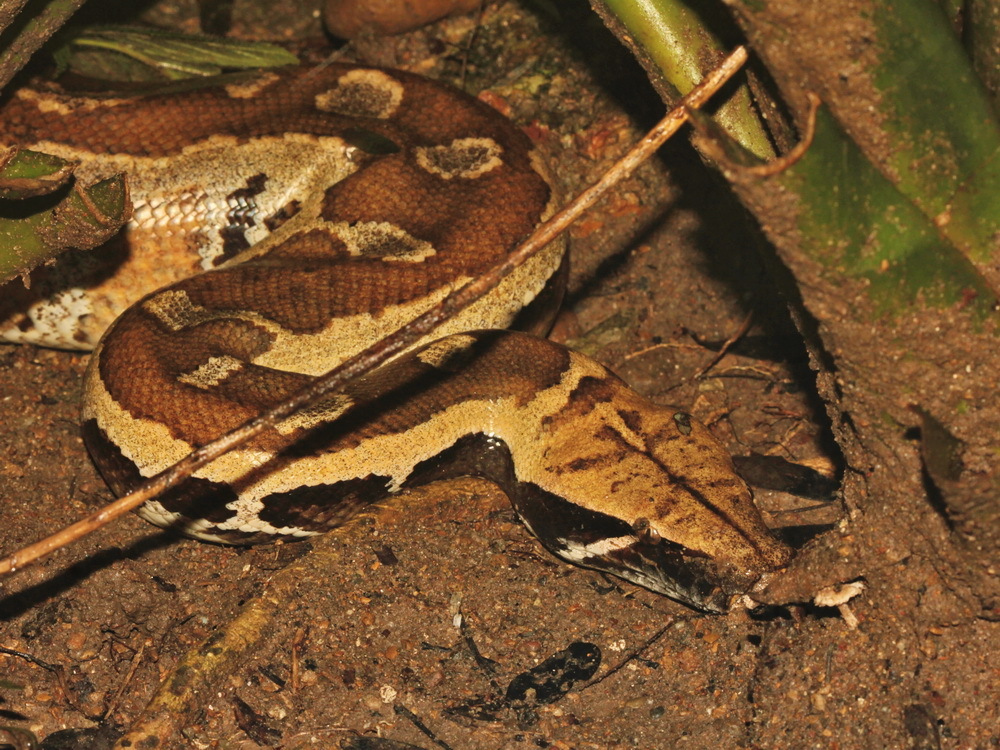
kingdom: Animalia
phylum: Chordata
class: Squamata
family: Pythonidae
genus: Python
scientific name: Python brongersmai
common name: Blood python
